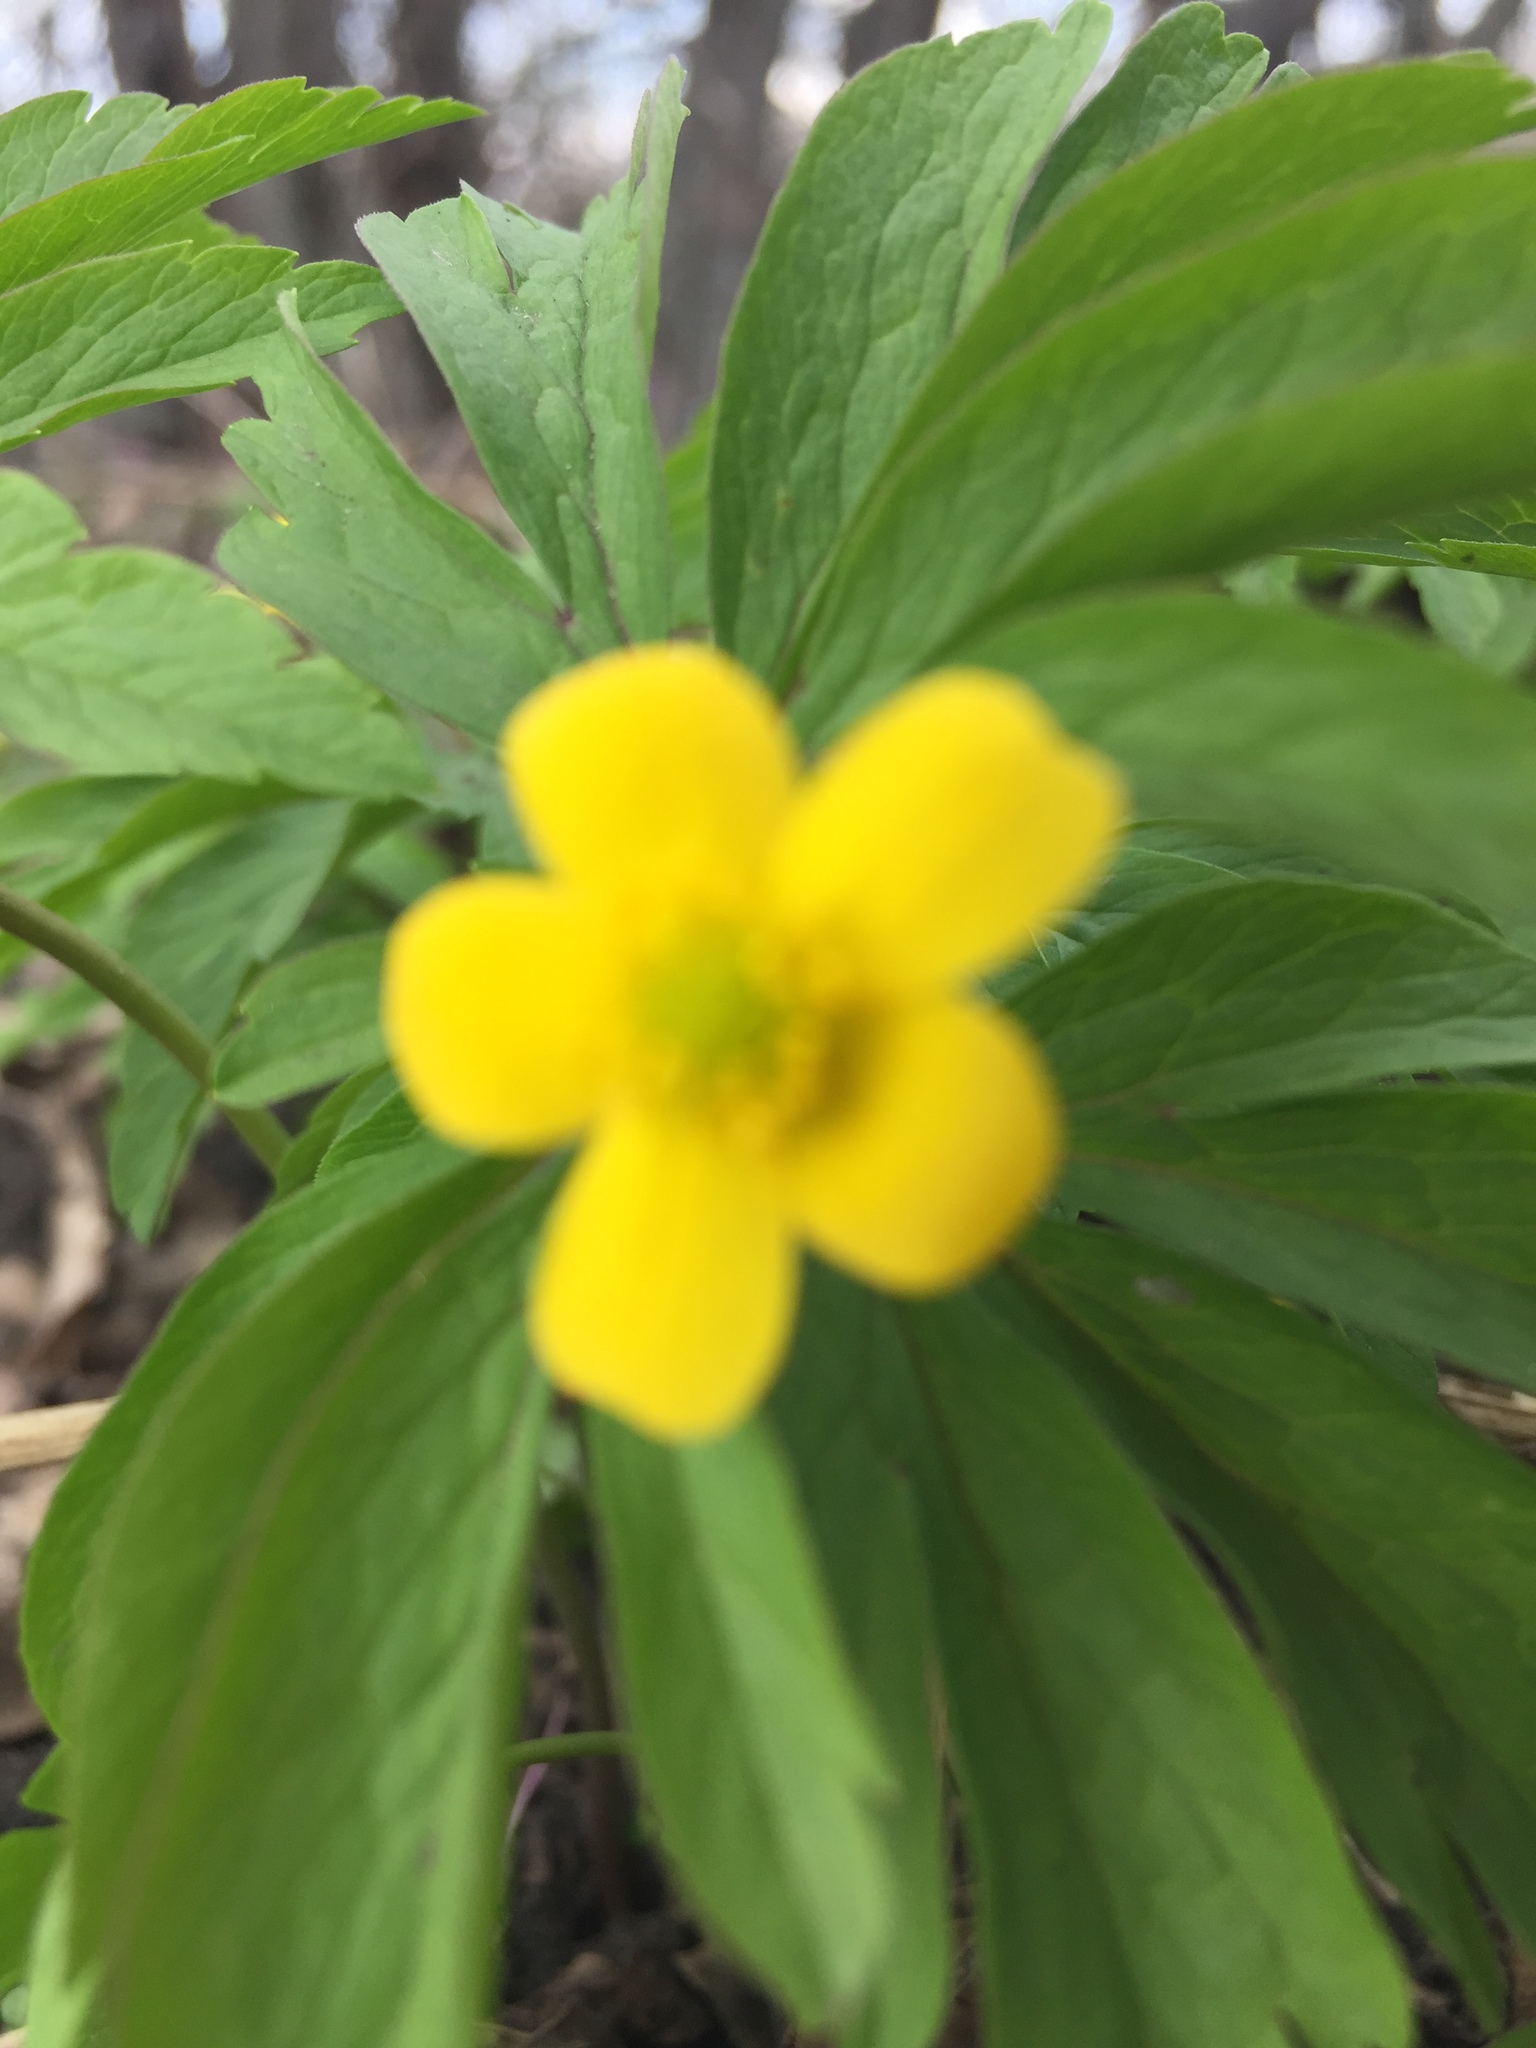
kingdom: Plantae
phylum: Tracheophyta
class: Magnoliopsida
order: Ranunculales
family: Ranunculaceae
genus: Anemone
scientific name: Anemone ranunculoides
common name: Yellow anemone
